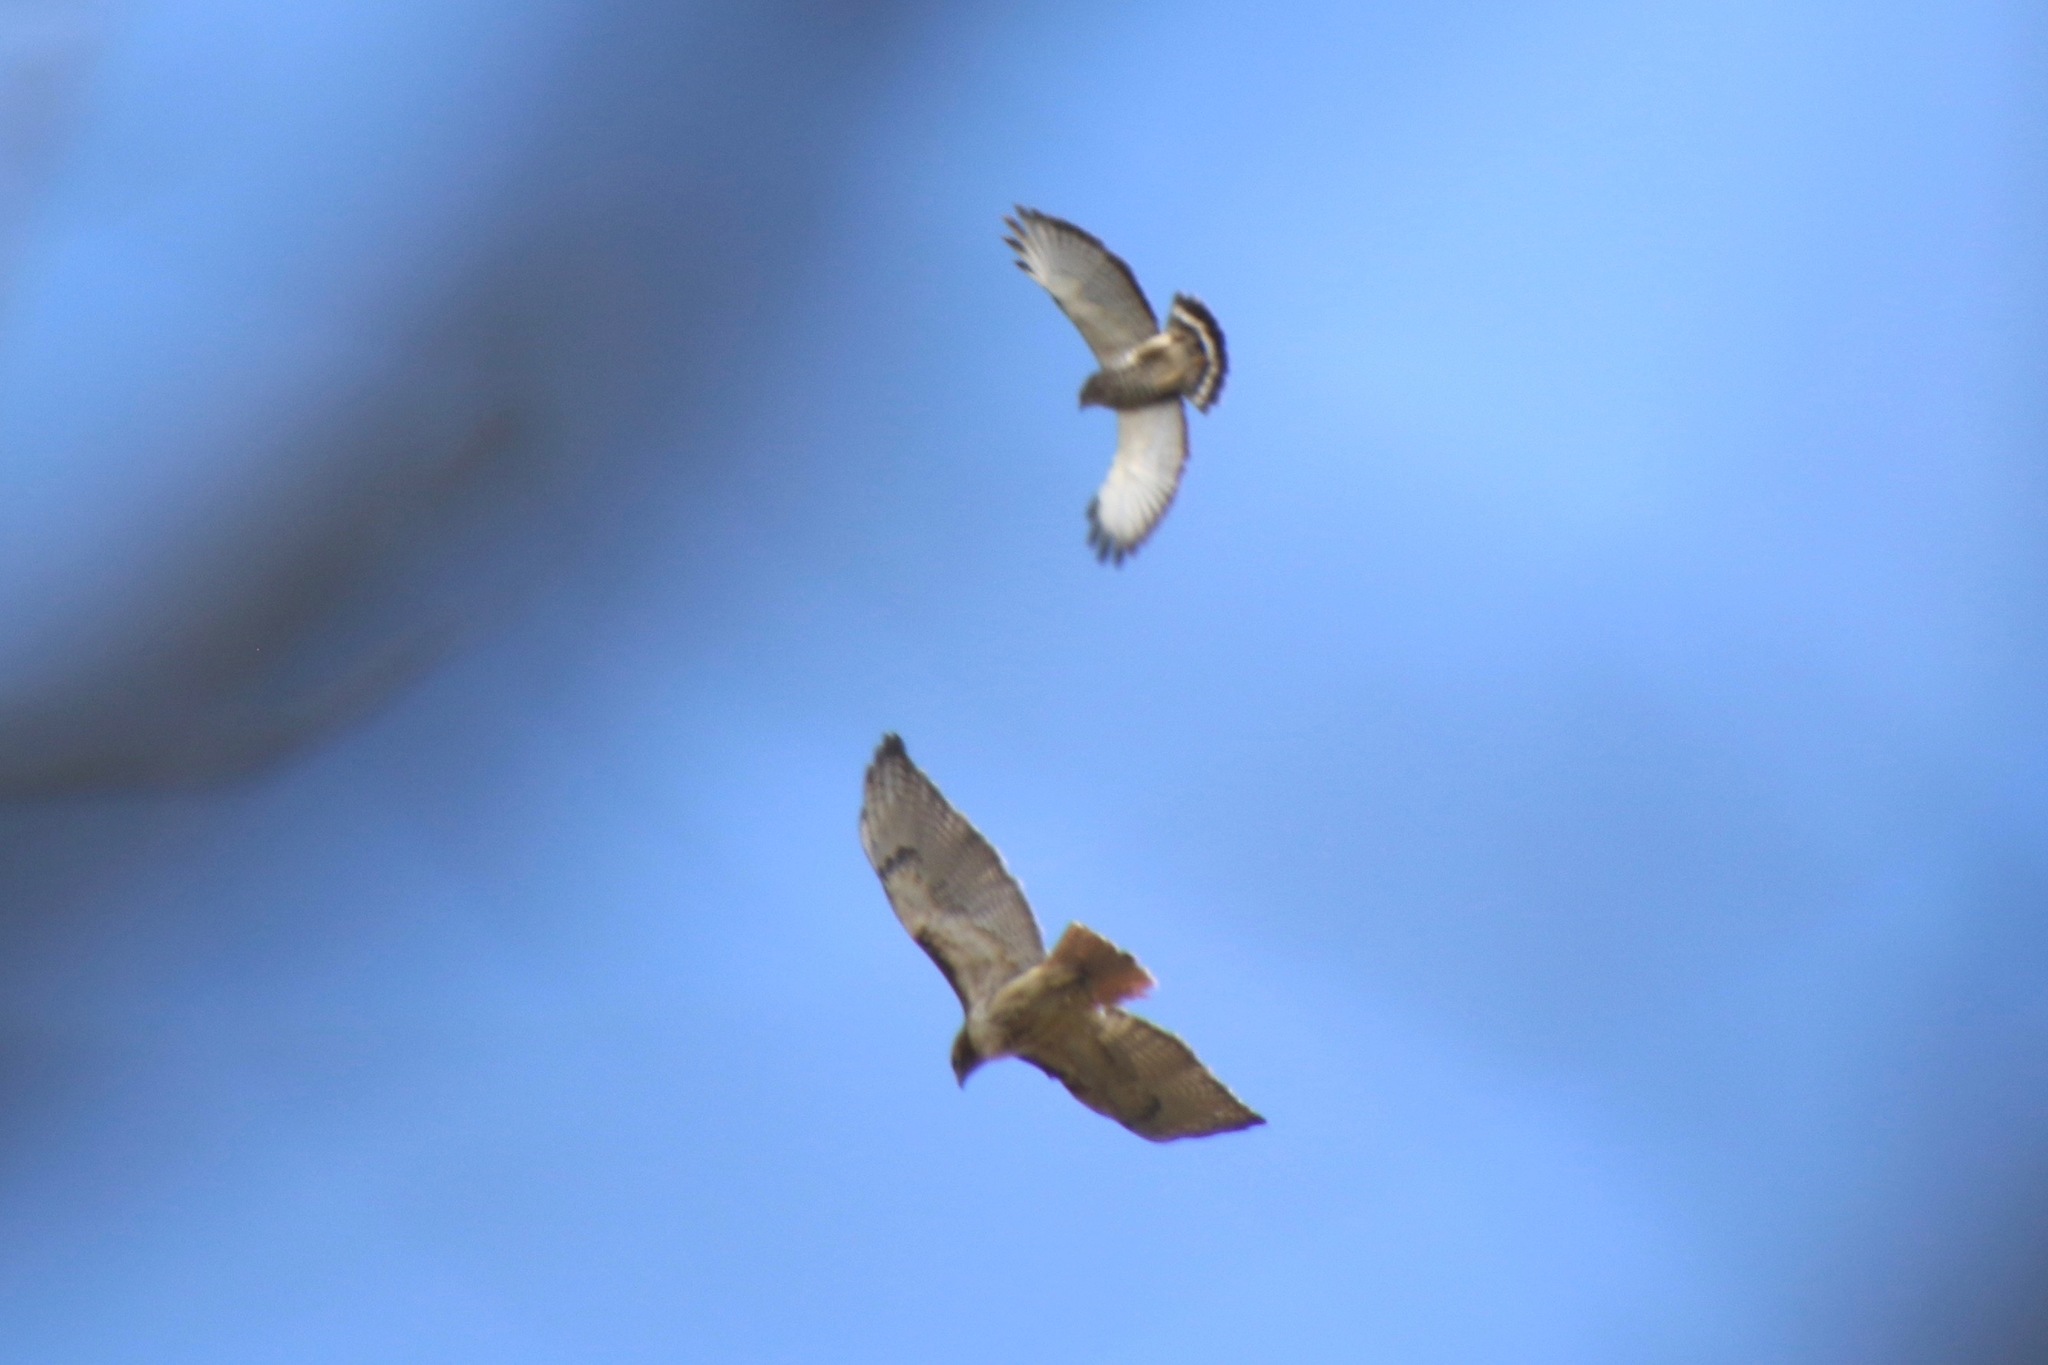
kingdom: Animalia
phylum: Chordata
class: Aves
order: Accipitriformes
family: Accipitridae
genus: Buteo
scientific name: Buteo platypterus
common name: Broad-winged hawk
